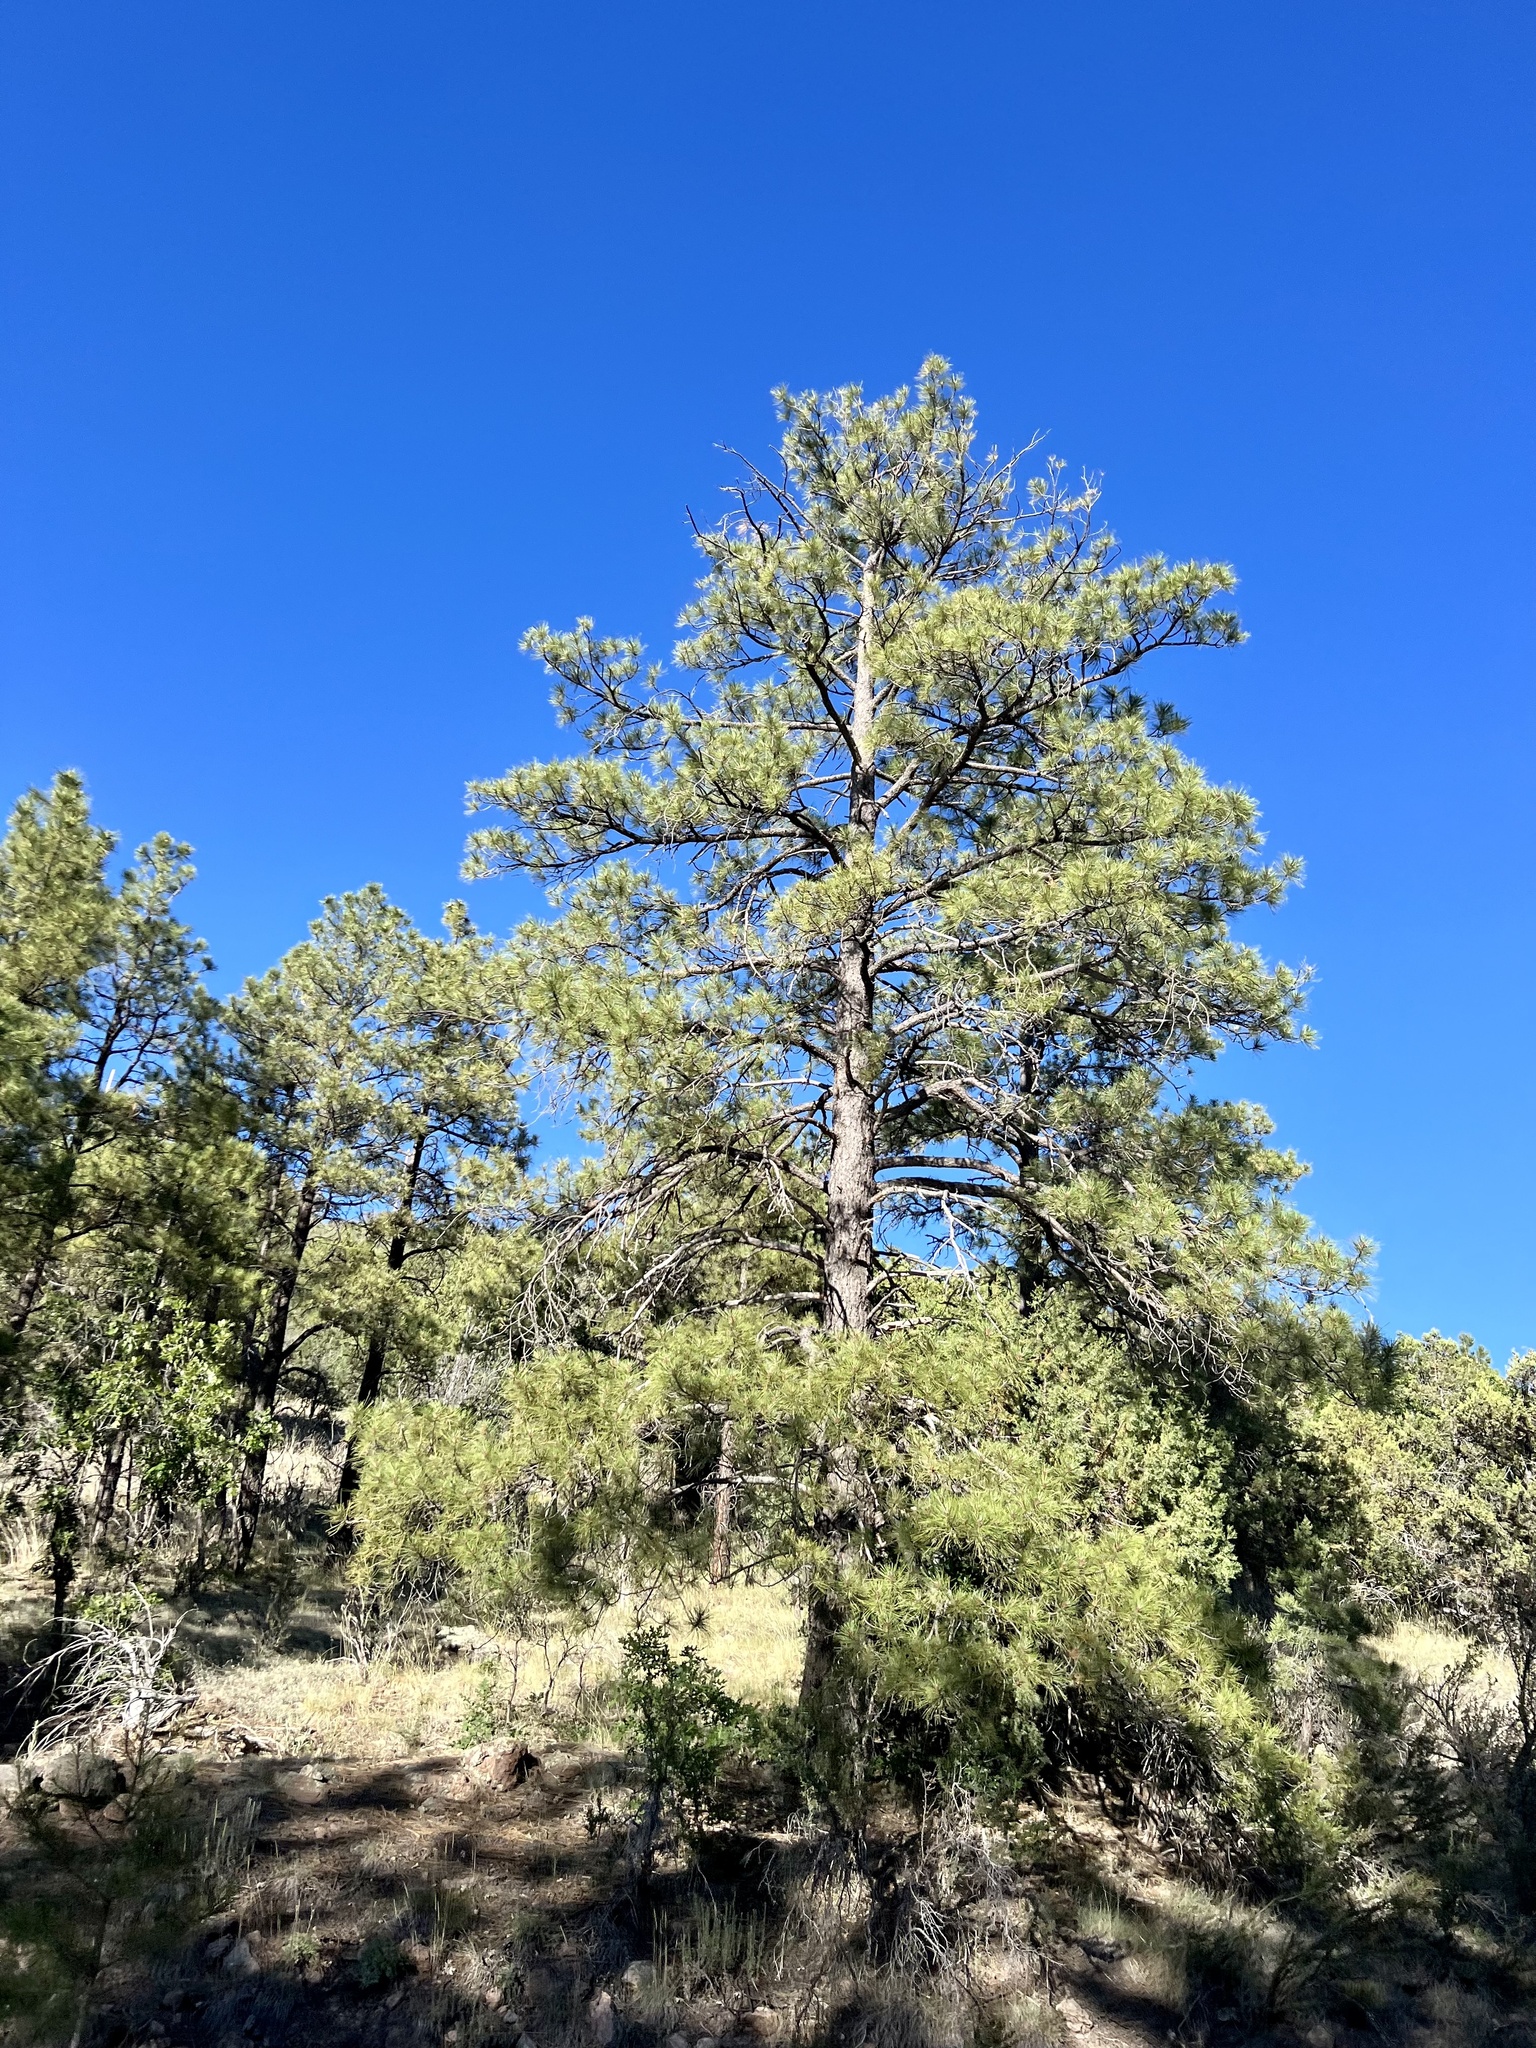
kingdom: Plantae
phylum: Tracheophyta
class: Pinopsida
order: Pinales
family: Pinaceae
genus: Pinus
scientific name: Pinus ponderosa
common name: Western yellow-pine
